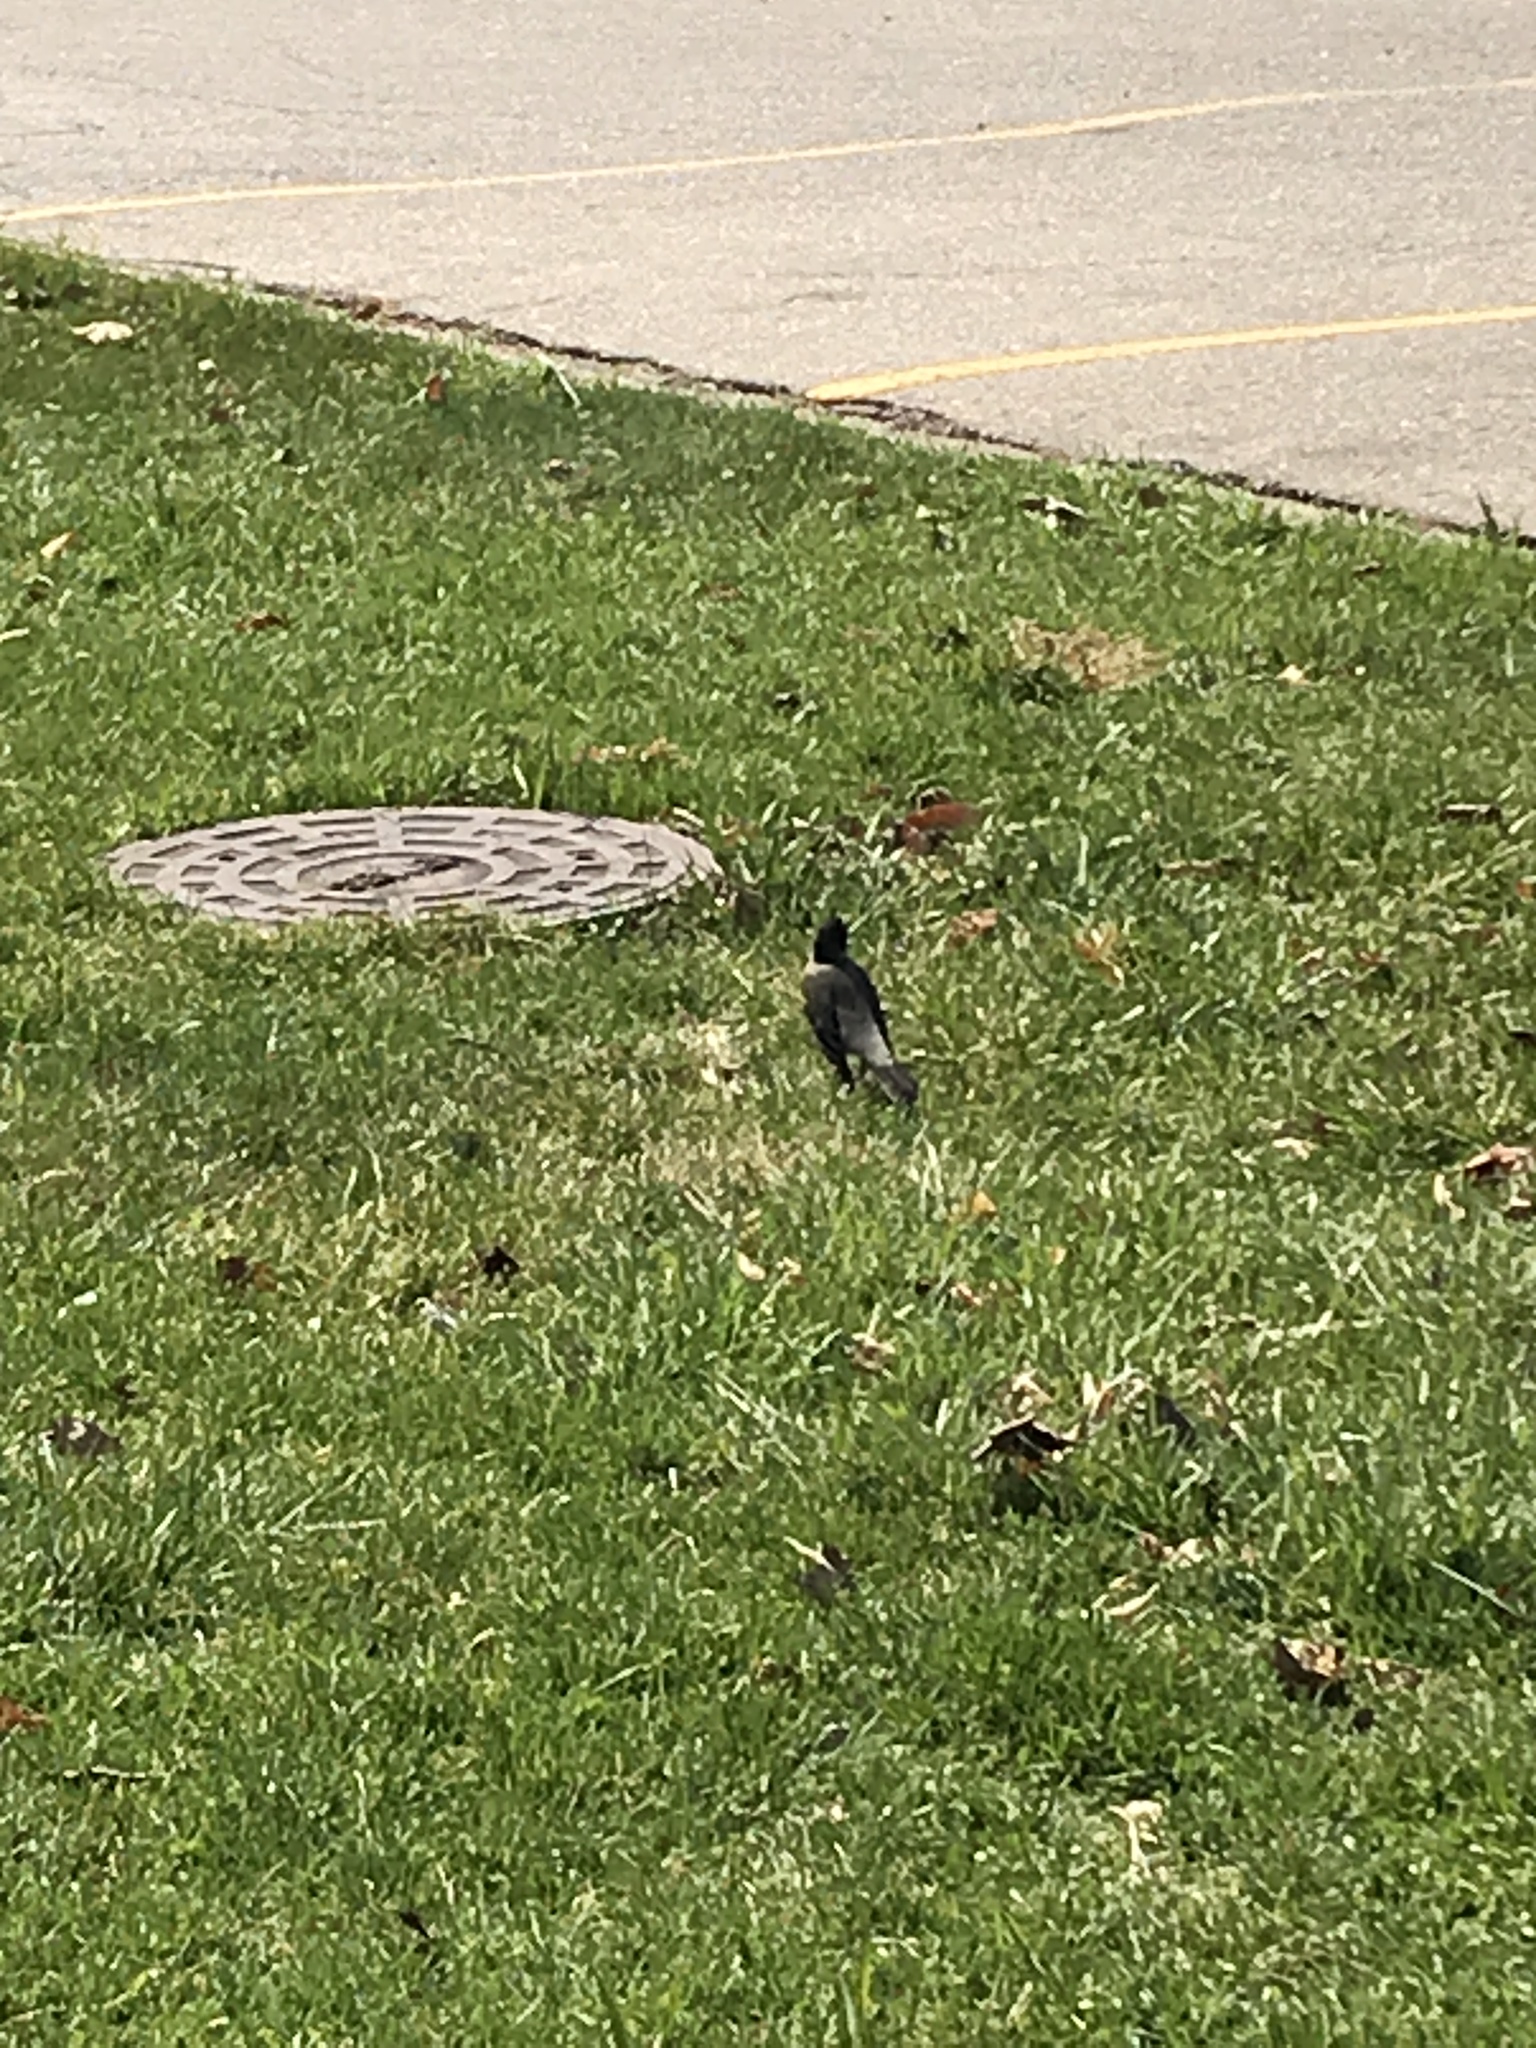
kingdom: Animalia
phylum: Chordata
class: Aves
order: Passeriformes
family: Turdidae
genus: Turdus
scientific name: Turdus migratorius
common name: American robin
